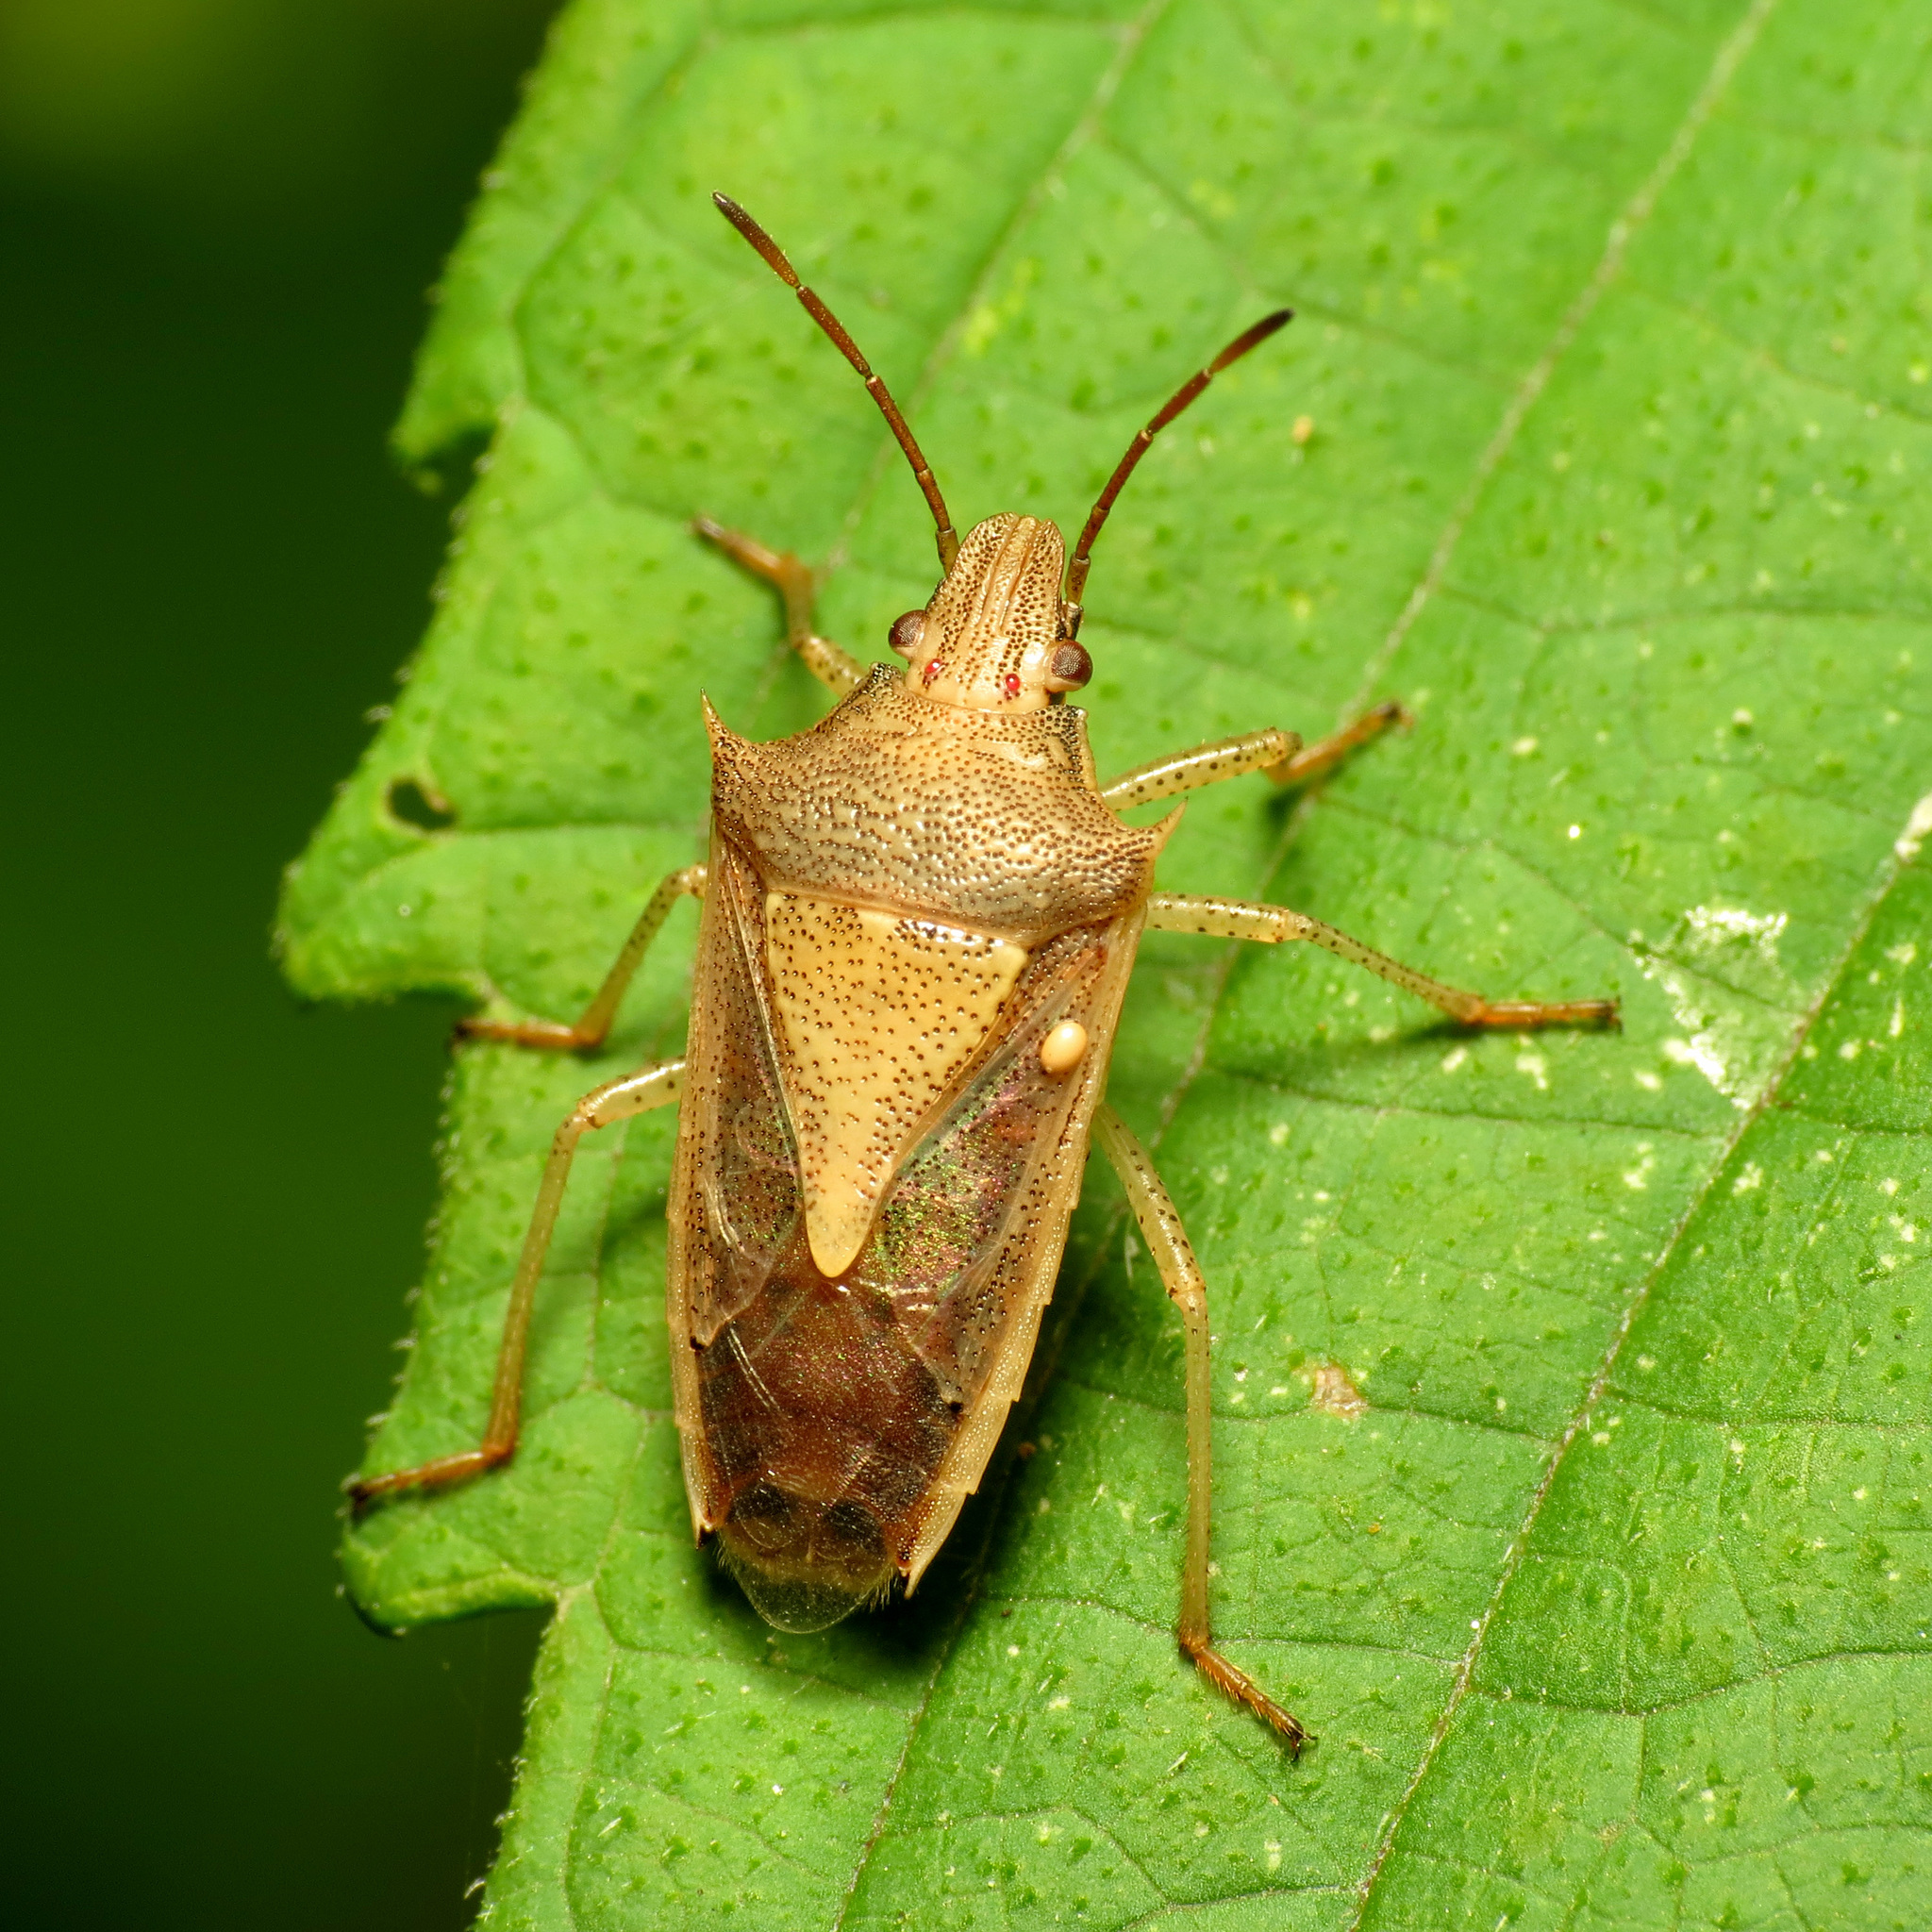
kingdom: Animalia
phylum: Arthropoda
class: Insecta
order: Hemiptera
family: Pentatomidae
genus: Oebalus
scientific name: Oebalus pugnax
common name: Rice stink bug
